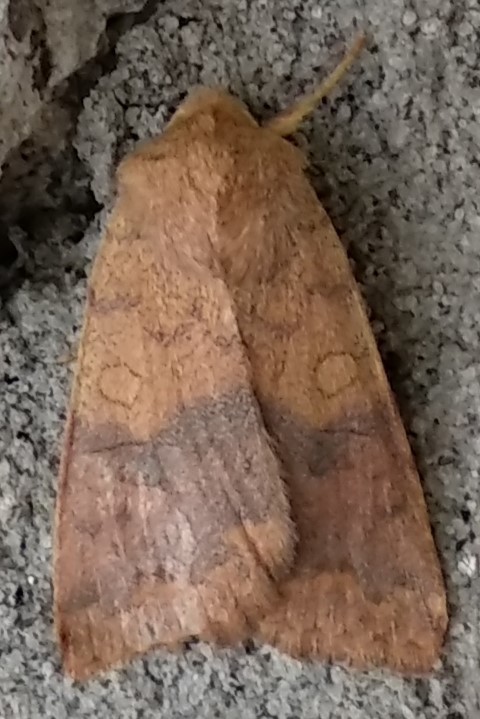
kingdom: Animalia
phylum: Arthropoda
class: Insecta
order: Lepidoptera
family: Noctuidae
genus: Agrochola
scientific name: Agrochola bicolorago
